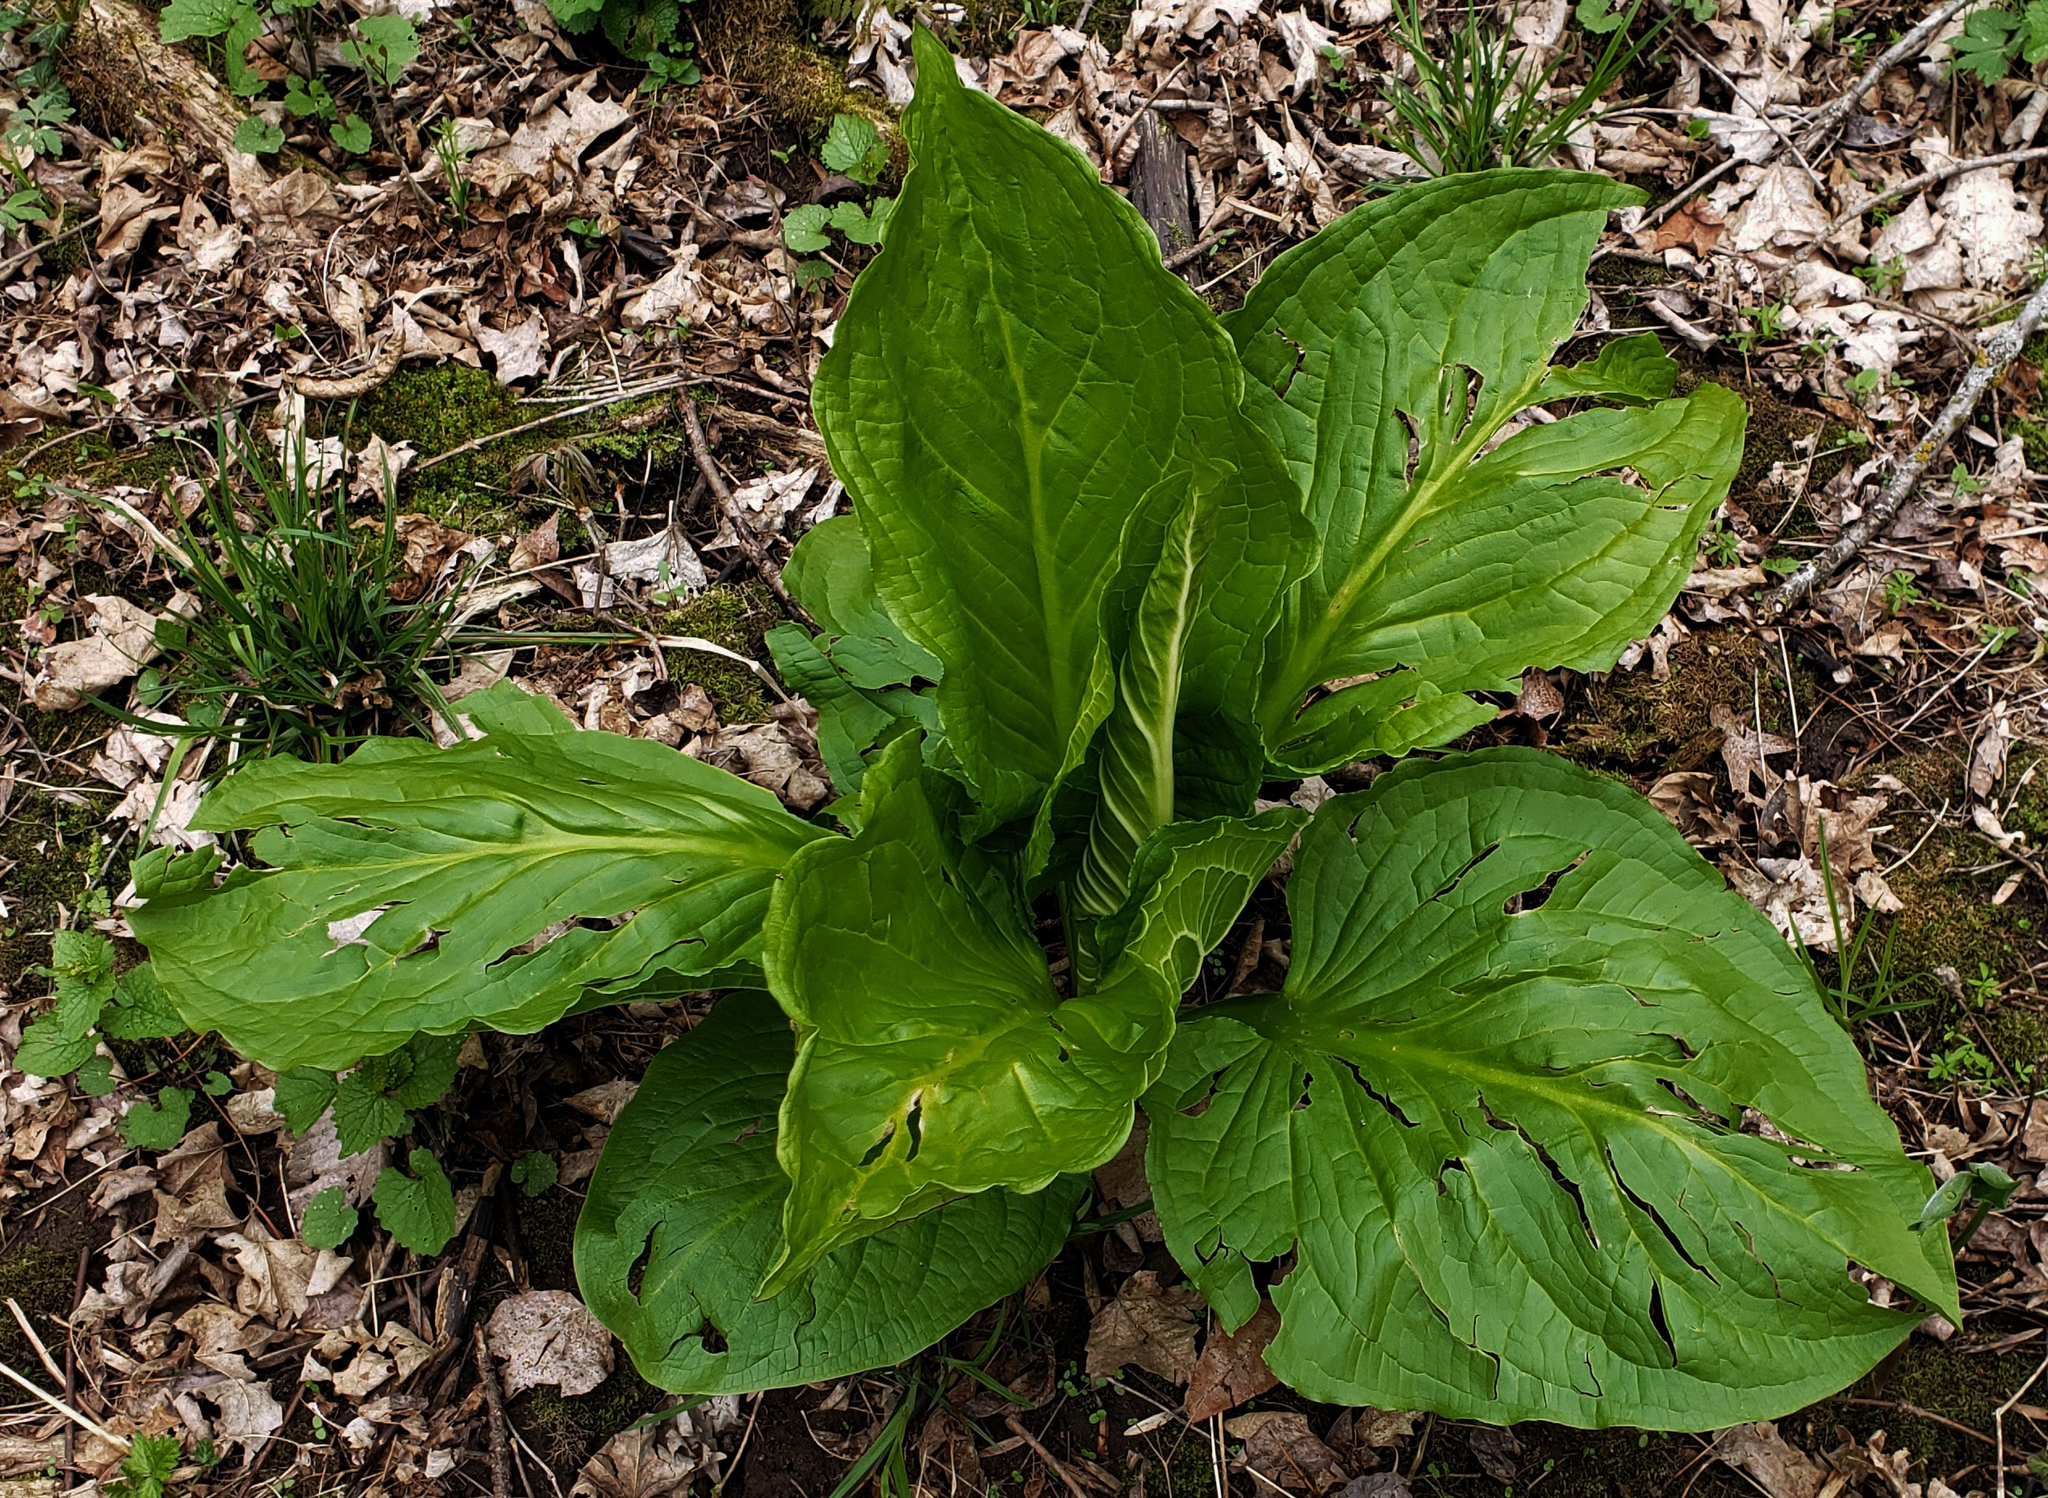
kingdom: Plantae
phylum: Tracheophyta
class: Liliopsida
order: Alismatales
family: Araceae
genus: Symplocarpus
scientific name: Symplocarpus foetidus
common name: Eastern skunk cabbage
